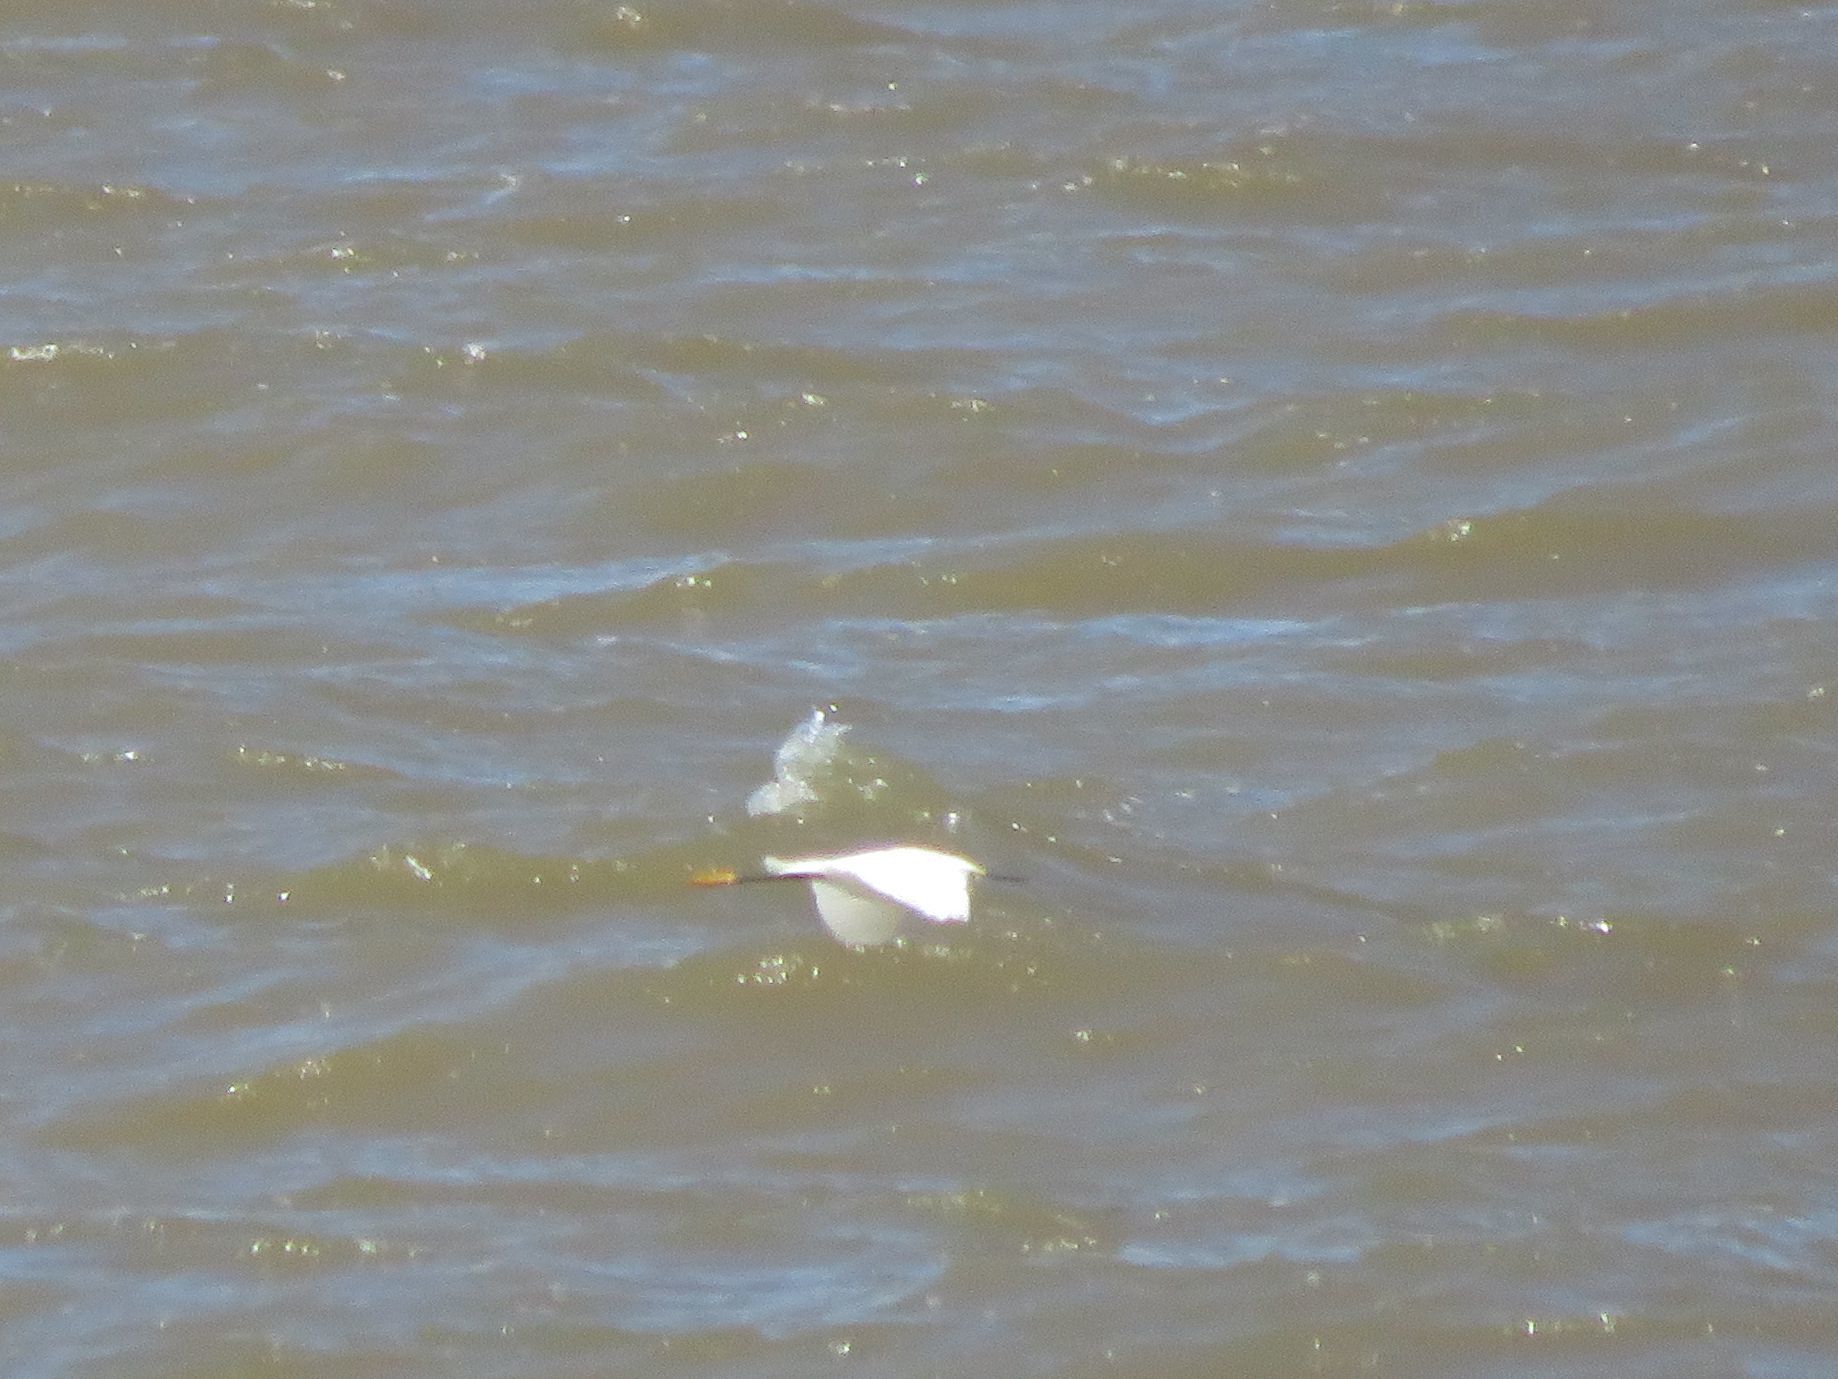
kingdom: Animalia
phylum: Chordata
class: Aves
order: Pelecaniformes
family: Ardeidae
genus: Egretta
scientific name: Egretta thula
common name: Snowy egret
